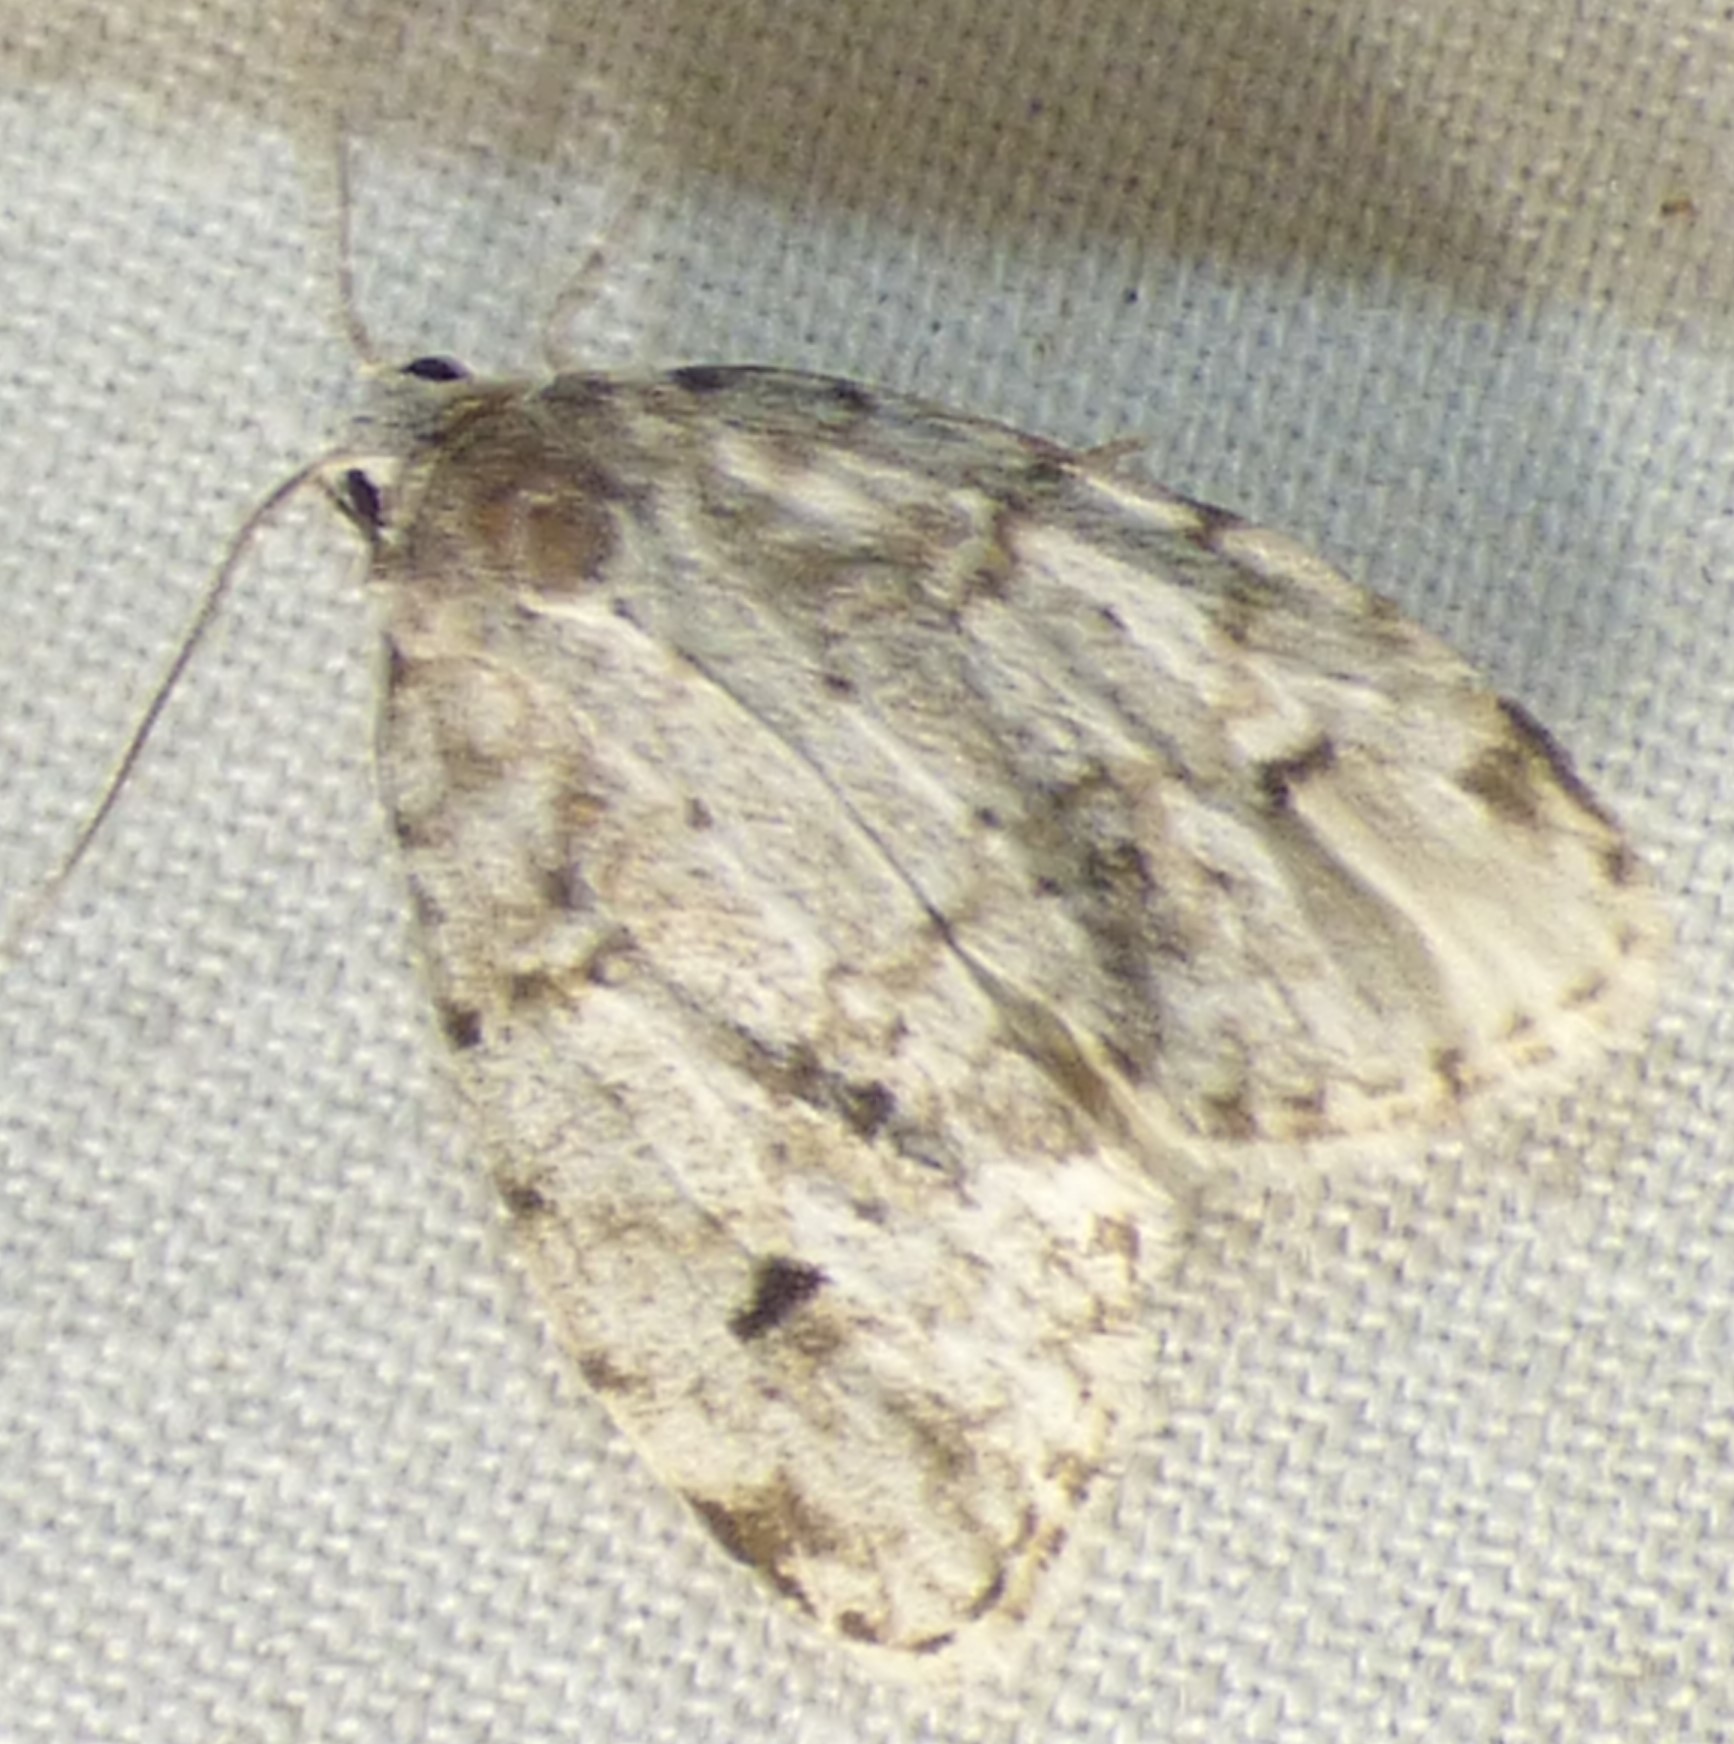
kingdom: Animalia
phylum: Arthropoda
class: Insecta
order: Lepidoptera
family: Erebidae
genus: Clemensia
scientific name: Clemensia albata
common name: Little white lichen moth
